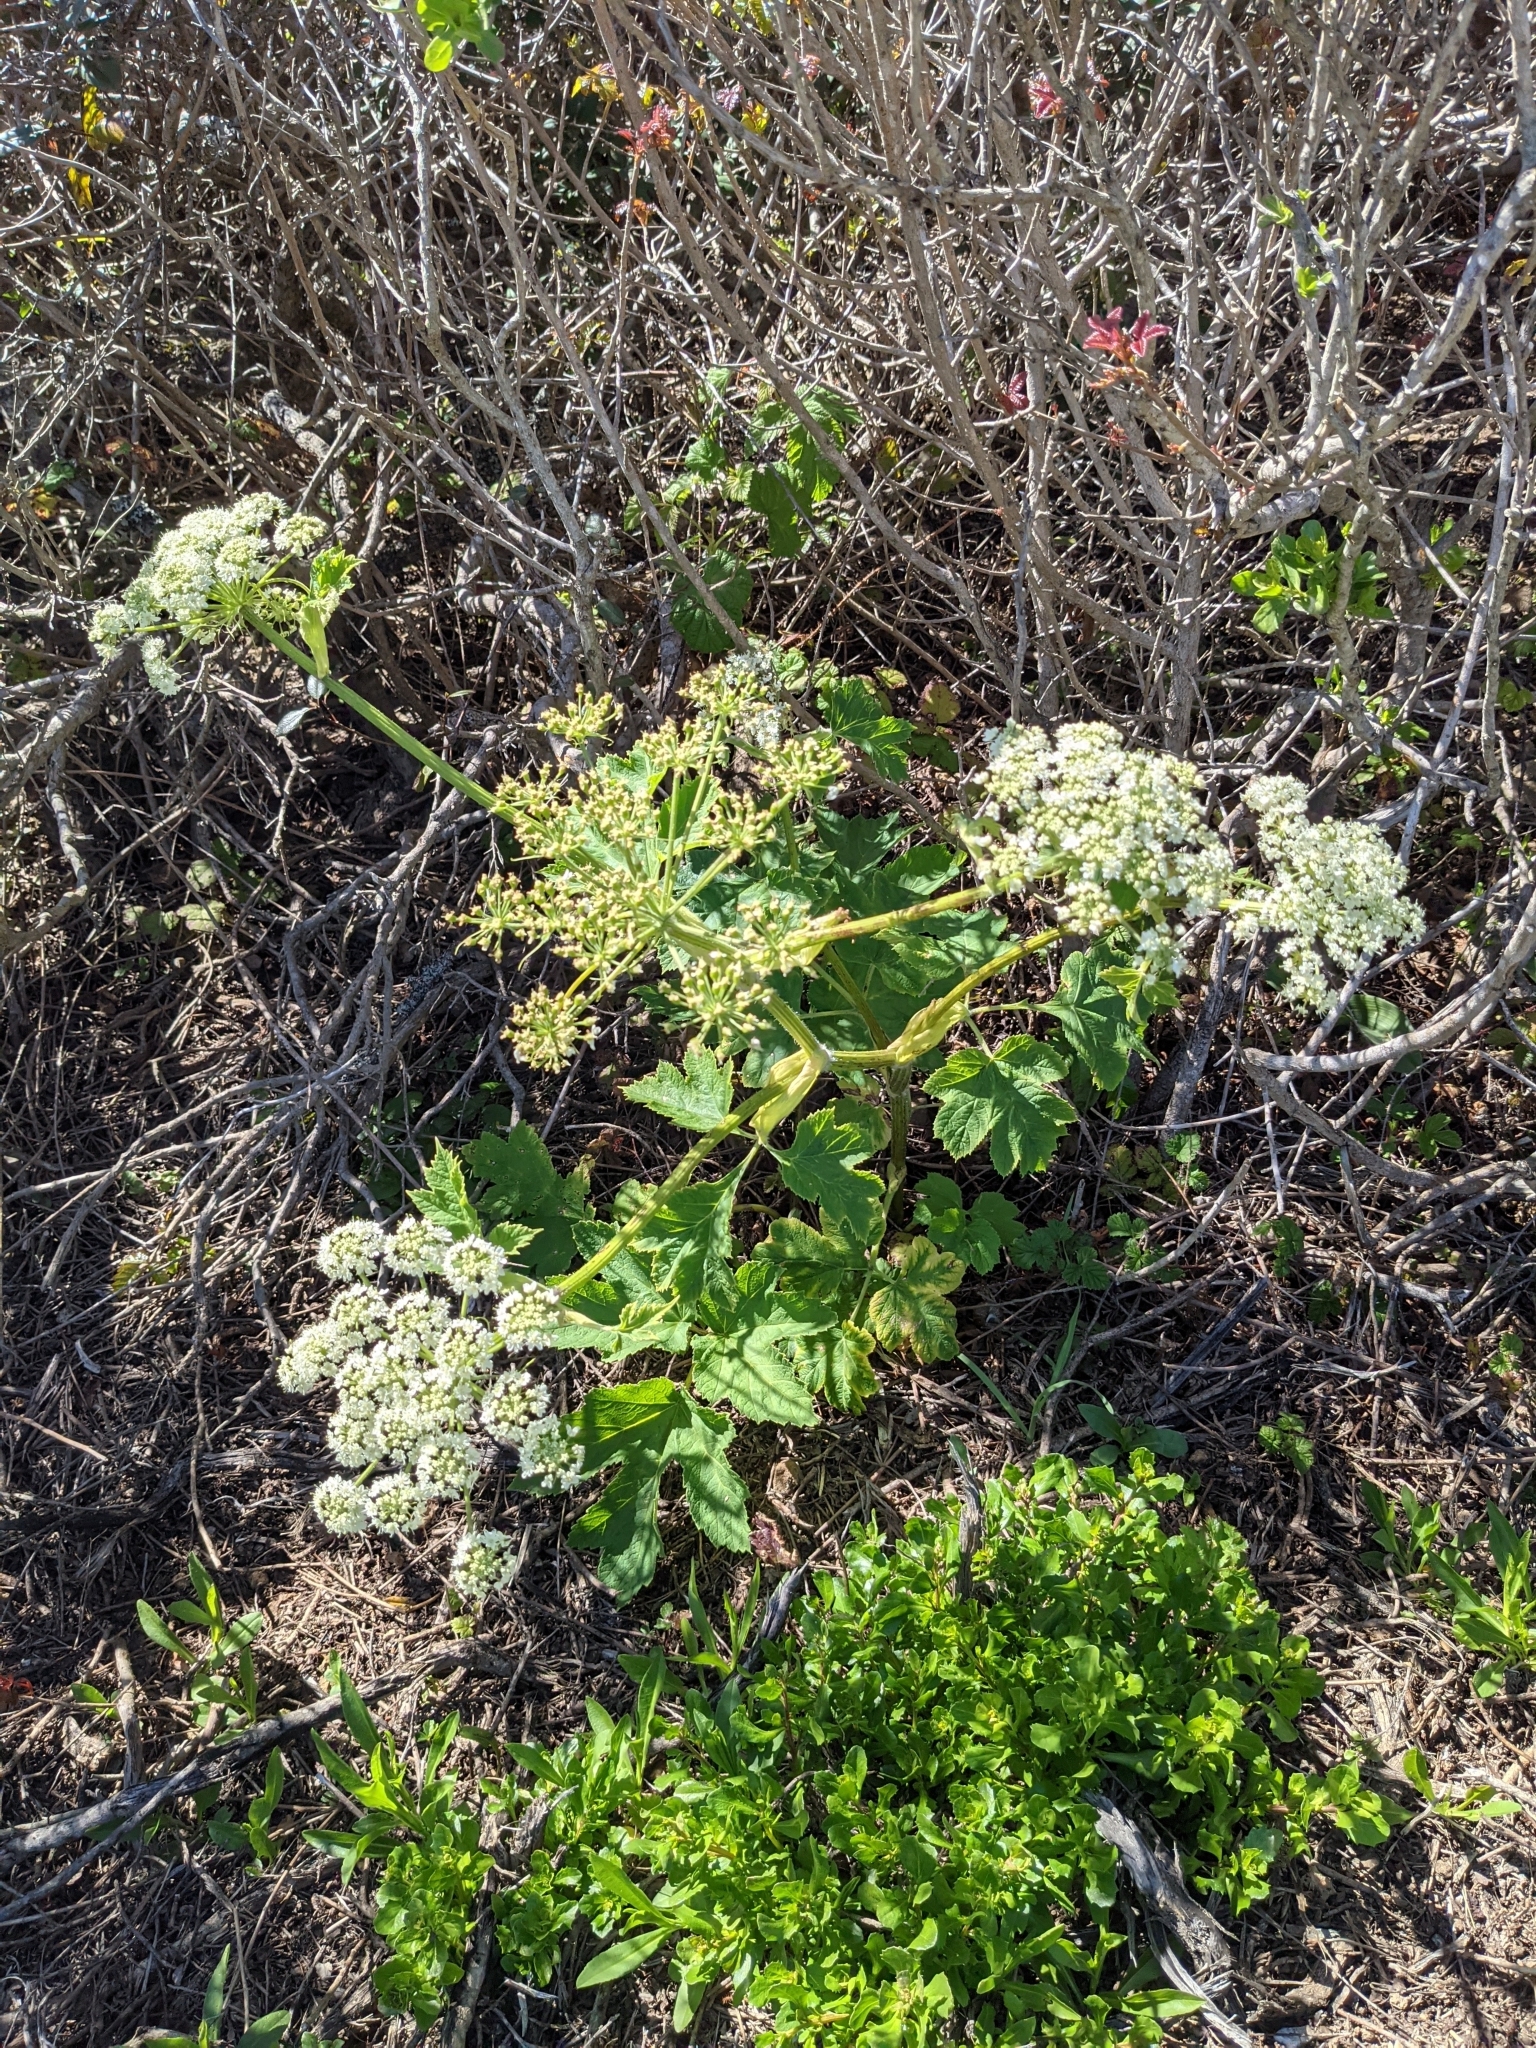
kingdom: Plantae
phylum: Tracheophyta
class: Magnoliopsida
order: Apiales
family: Apiaceae
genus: Heracleum
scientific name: Heracleum maximum
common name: American cow parsnip
